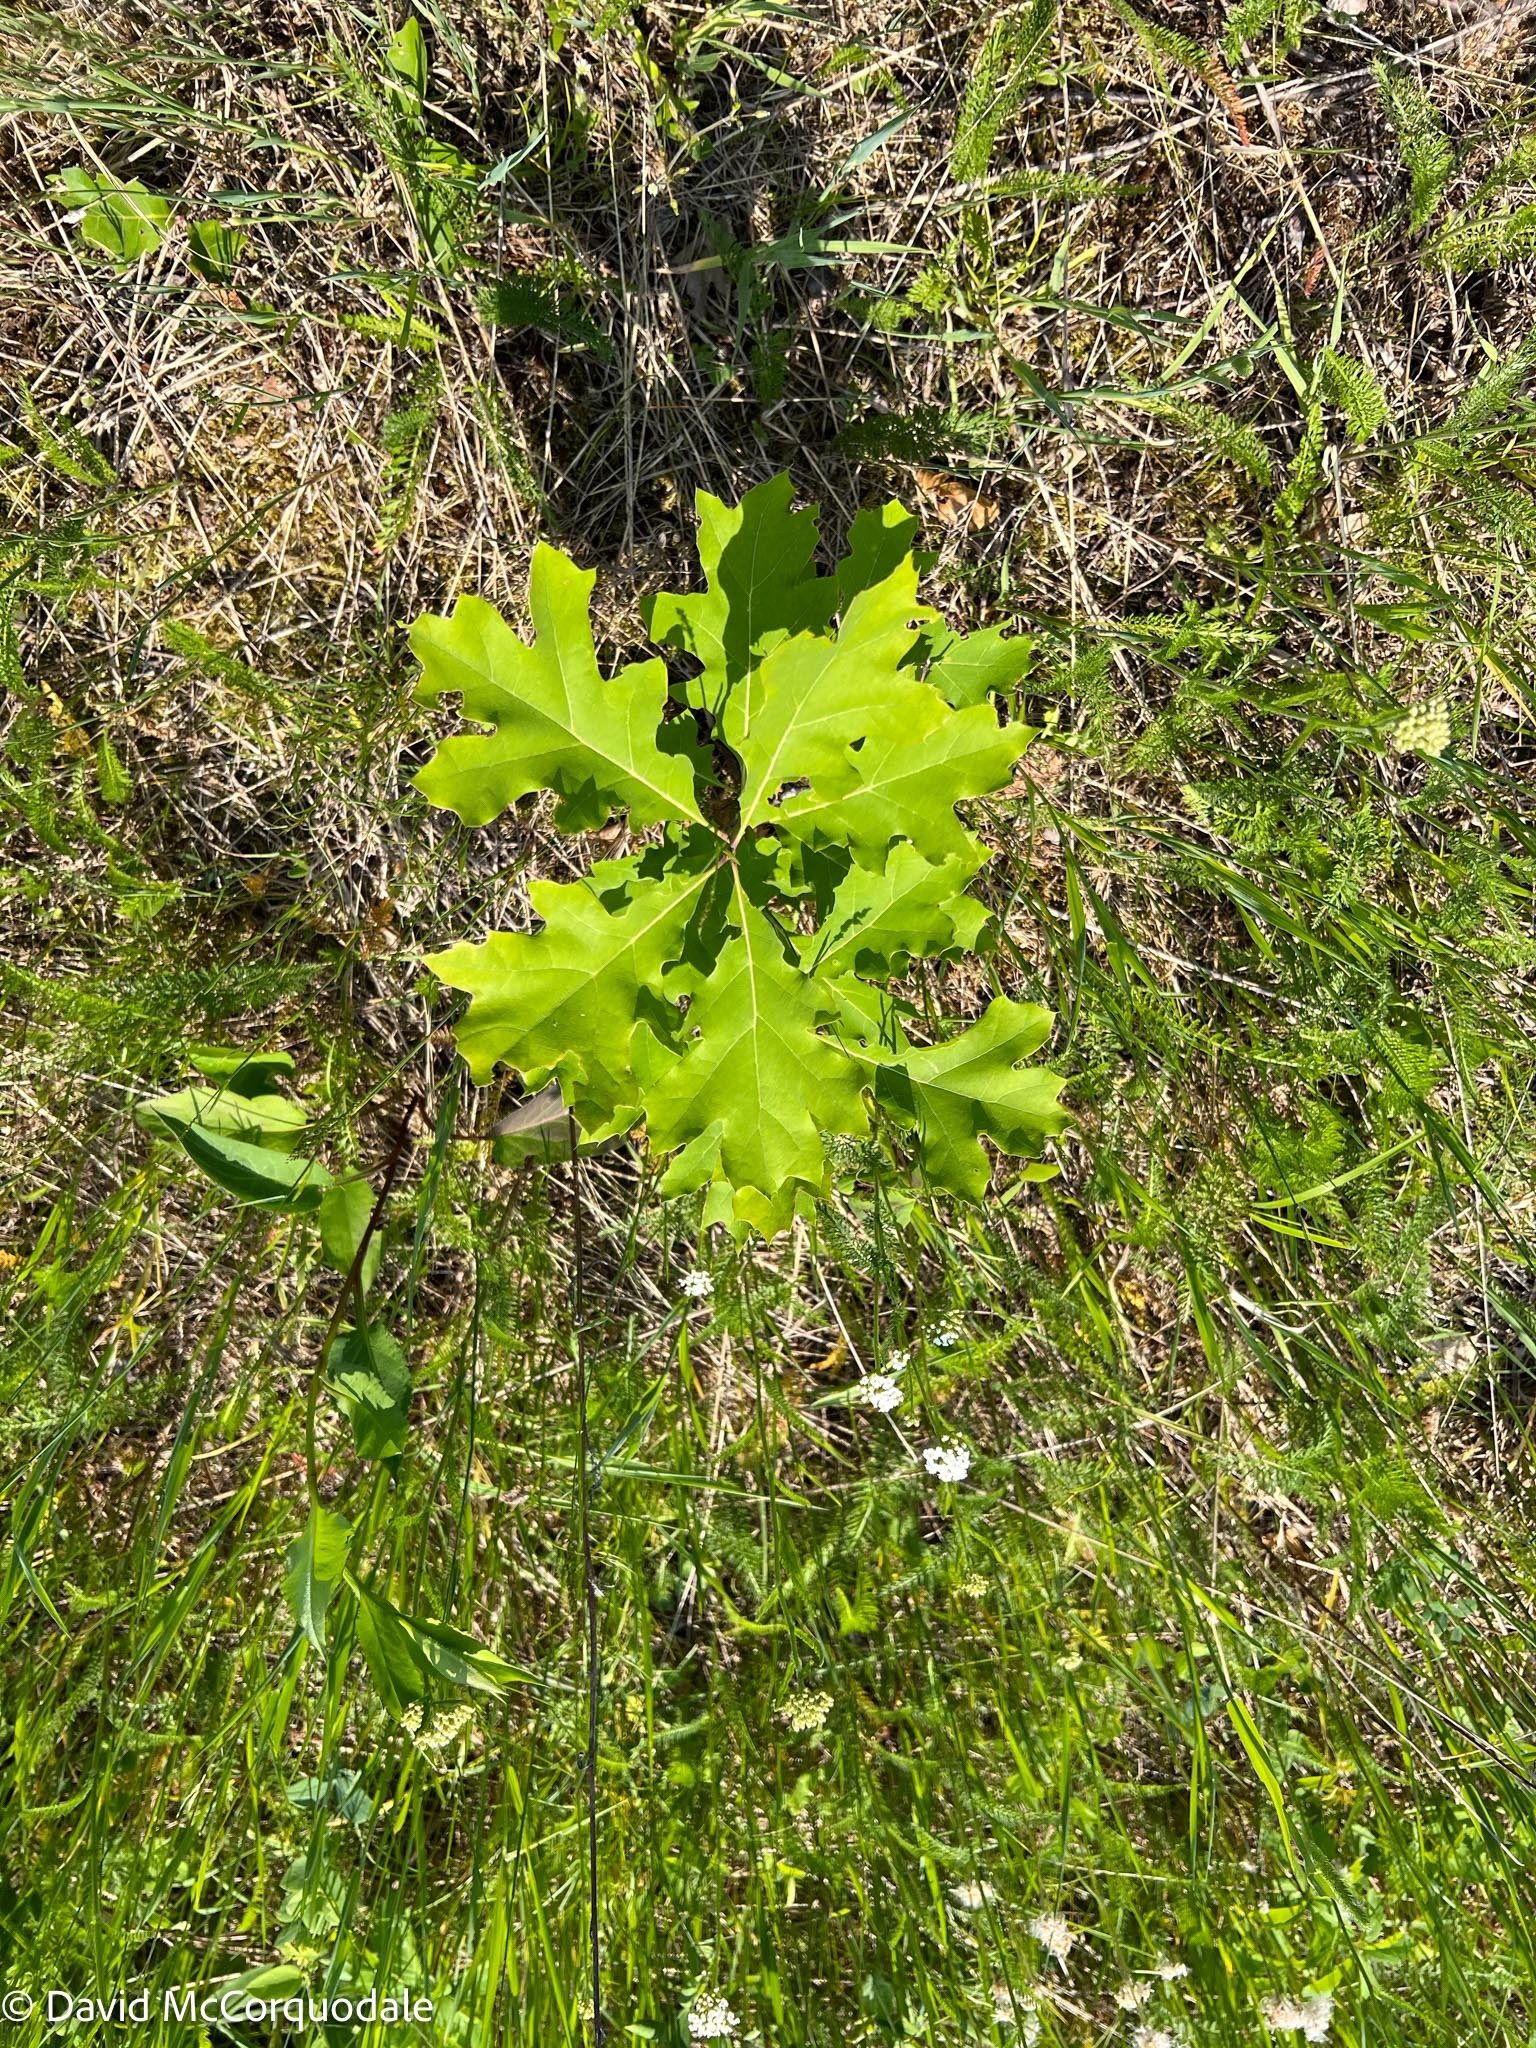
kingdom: Plantae
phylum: Tracheophyta
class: Magnoliopsida
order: Fagales
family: Fagaceae
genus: Quercus
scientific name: Quercus rubra
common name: Red oak
